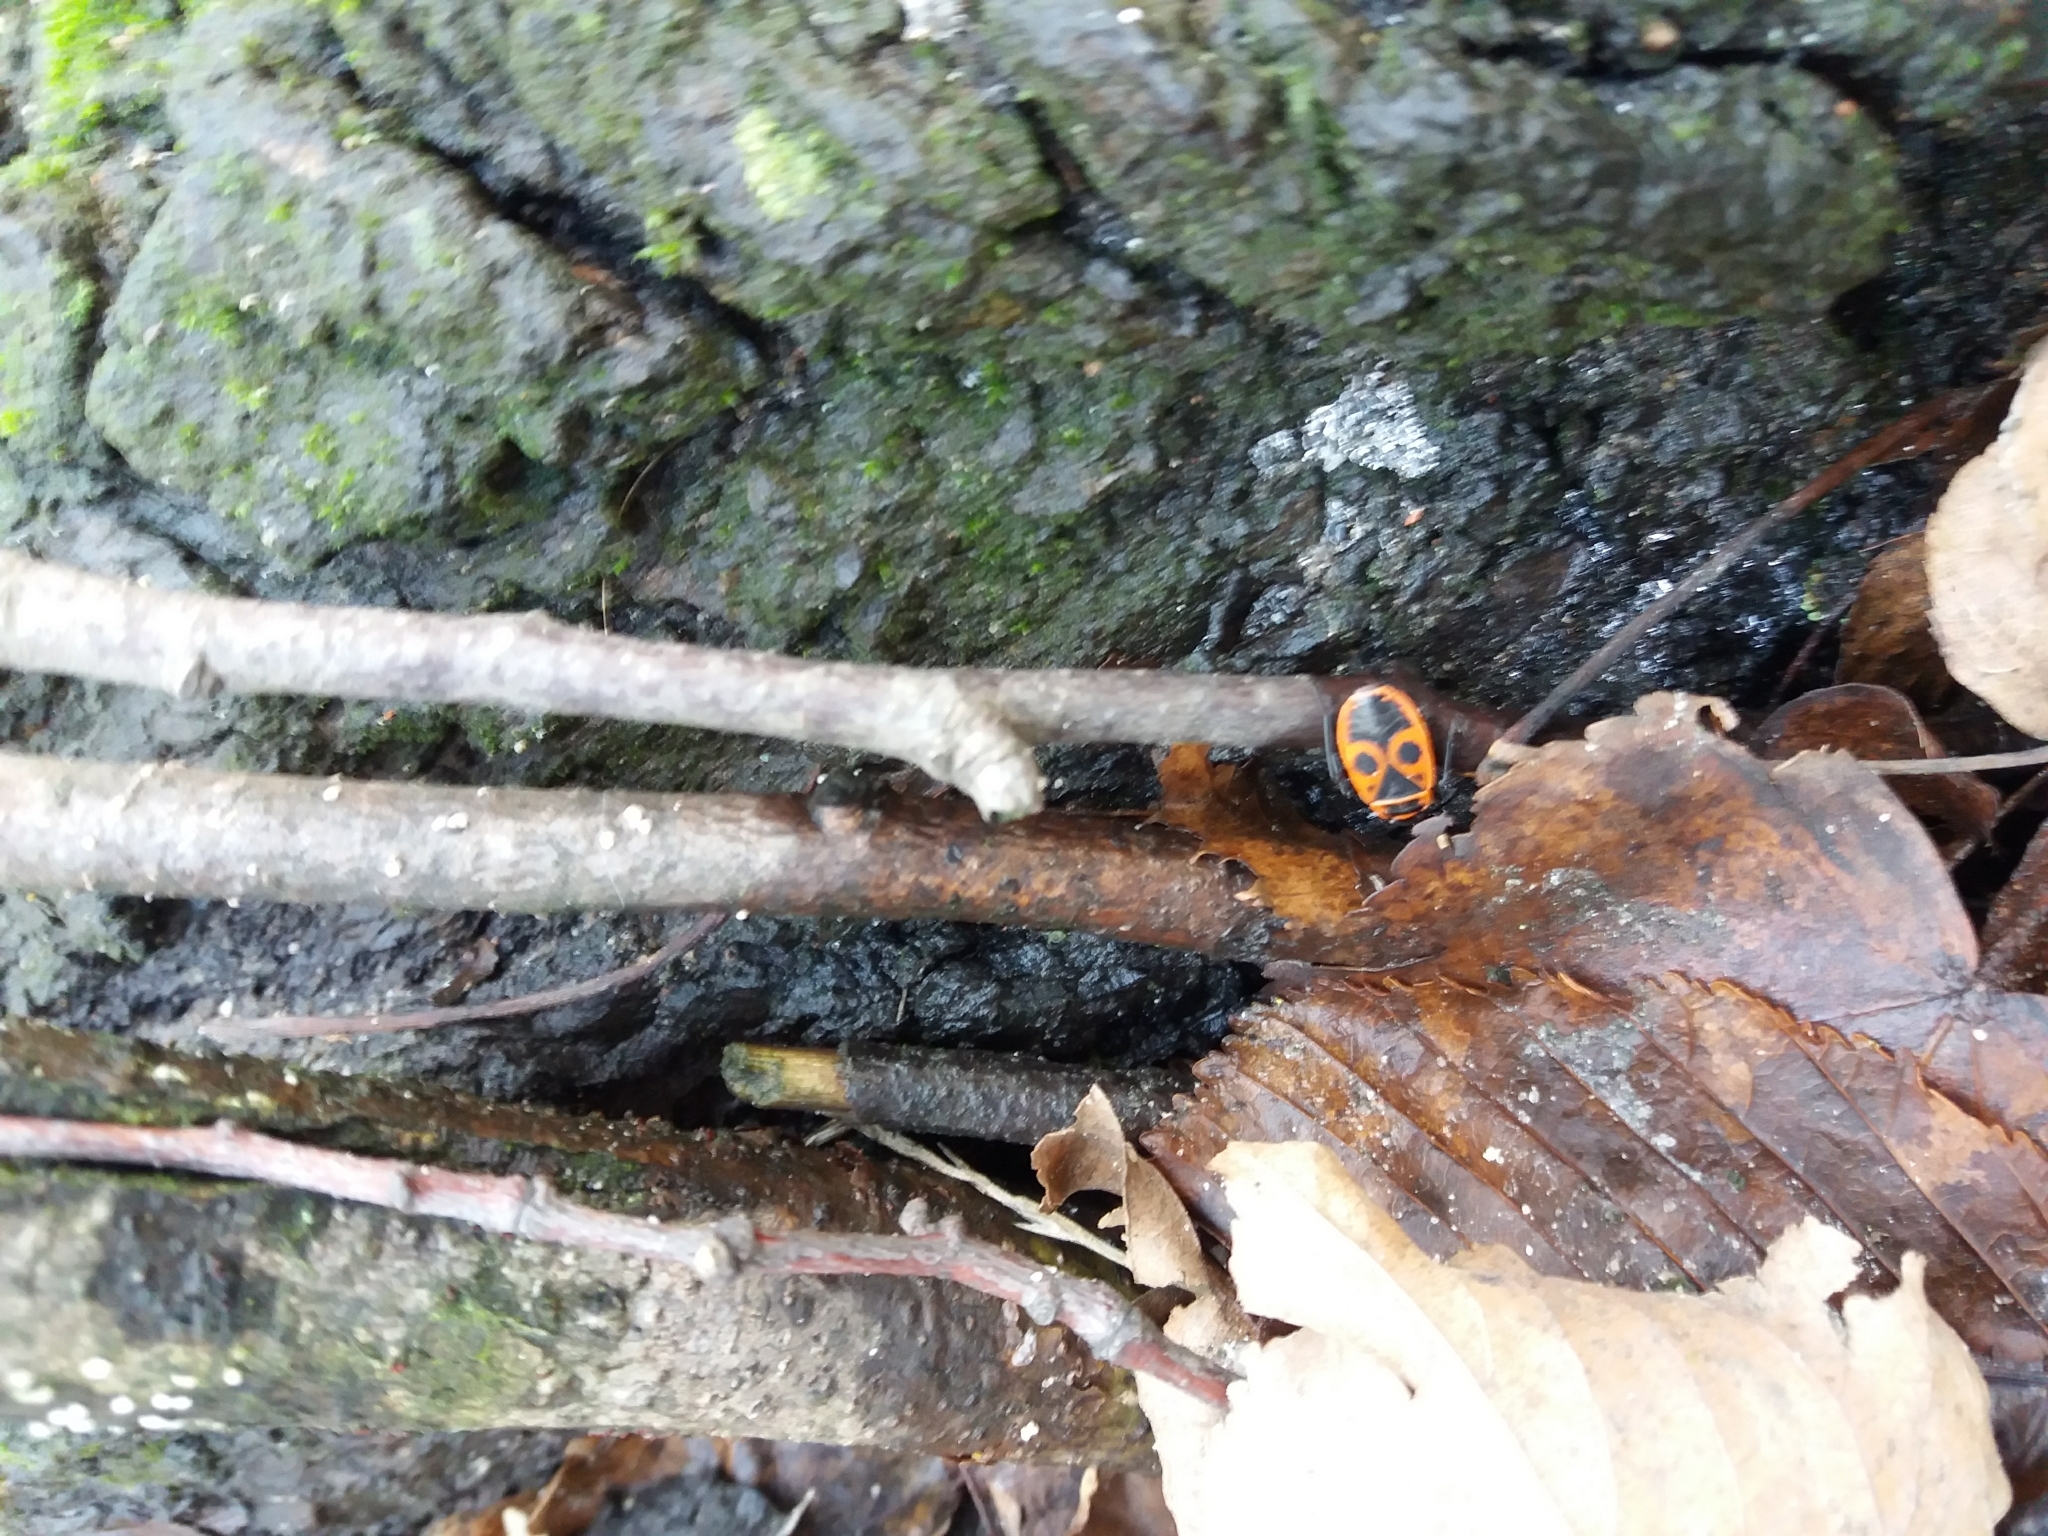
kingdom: Animalia
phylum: Arthropoda
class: Insecta
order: Hemiptera
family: Pyrrhocoridae
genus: Pyrrhocoris
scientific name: Pyrrhocoris apterus
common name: Firebug
